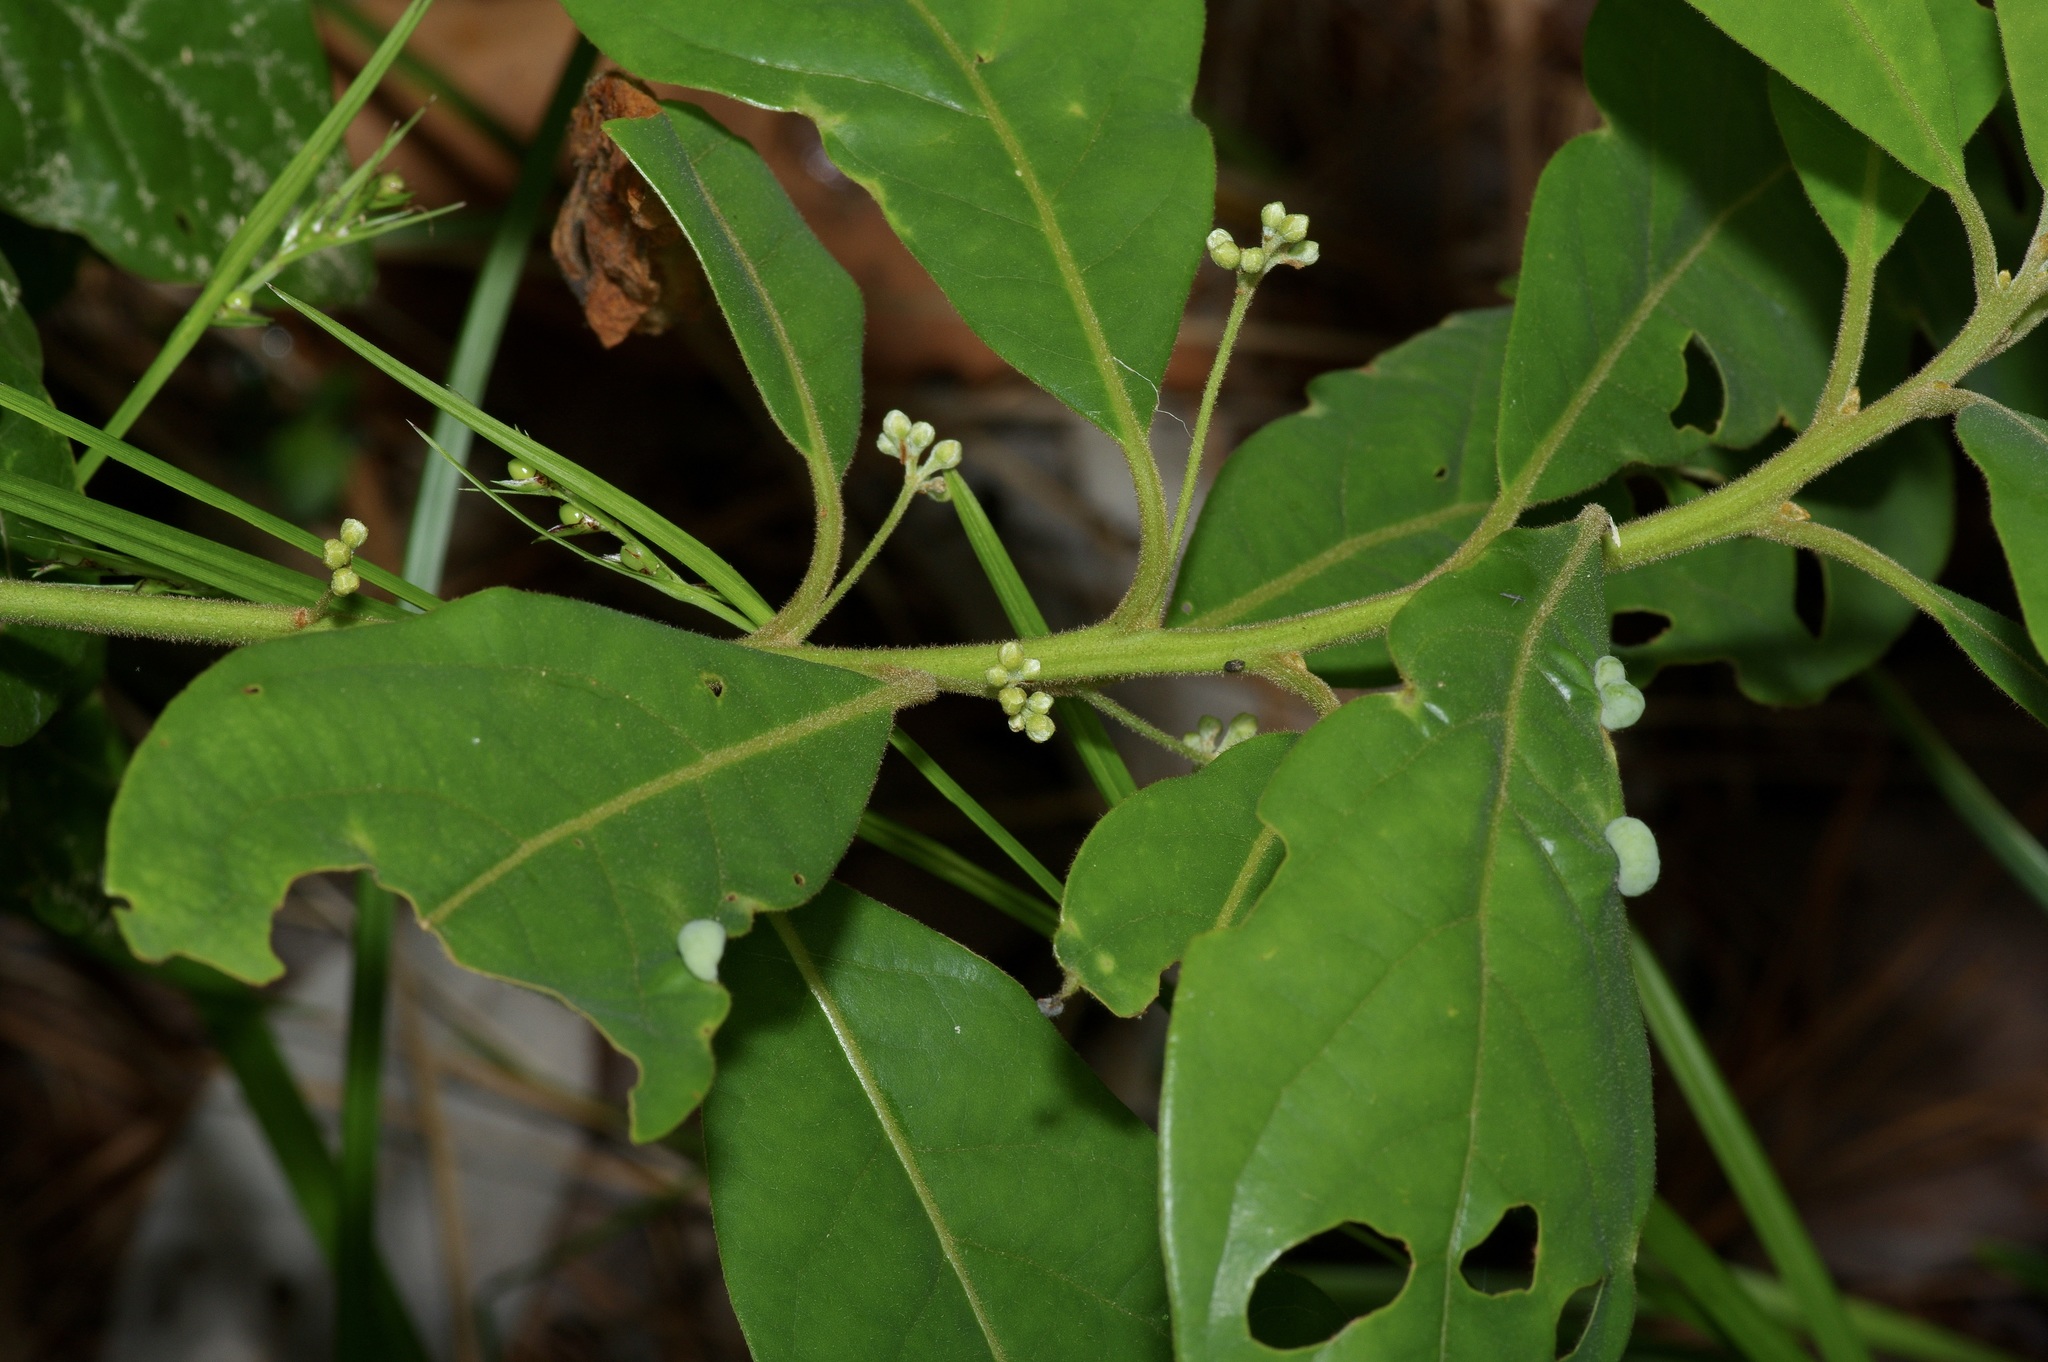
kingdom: Plantae
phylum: Tracheophyta
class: Magnoliopsida
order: Laurales
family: Lauraceae
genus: Persea
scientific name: Persea palustris
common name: Swampbay
